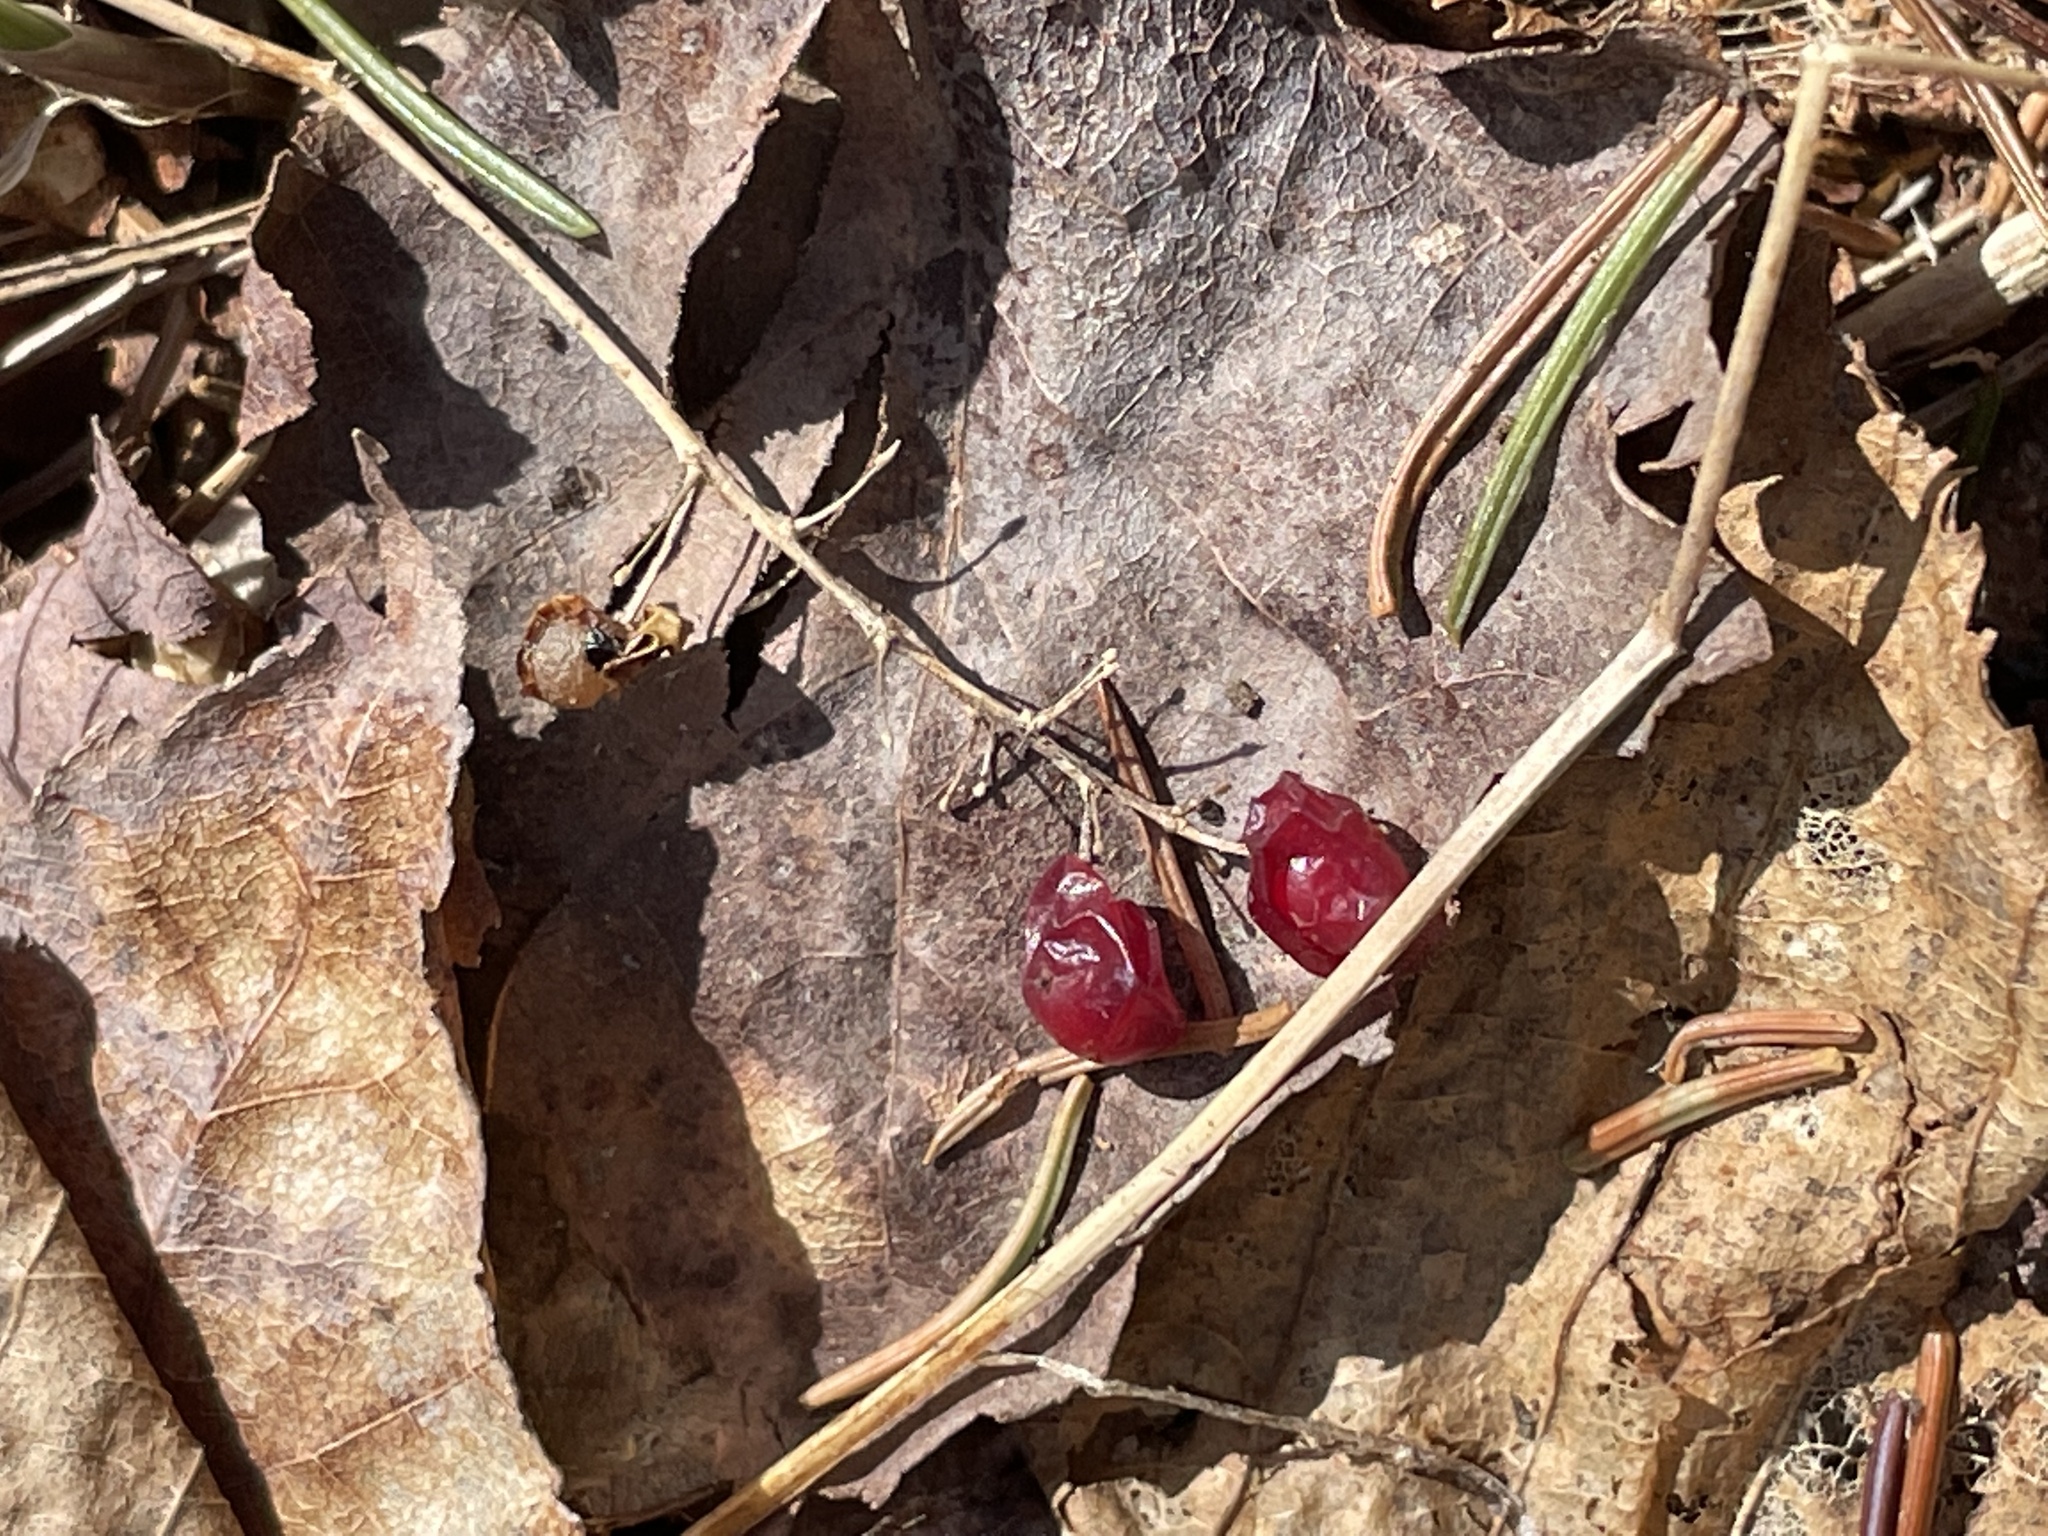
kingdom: Plantae
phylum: Tracheophyta
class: Liliopsida
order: Asparagales
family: Asparagaceae
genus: Maianthemum
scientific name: Maianthemum canadense
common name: False lily-of-the-valley
